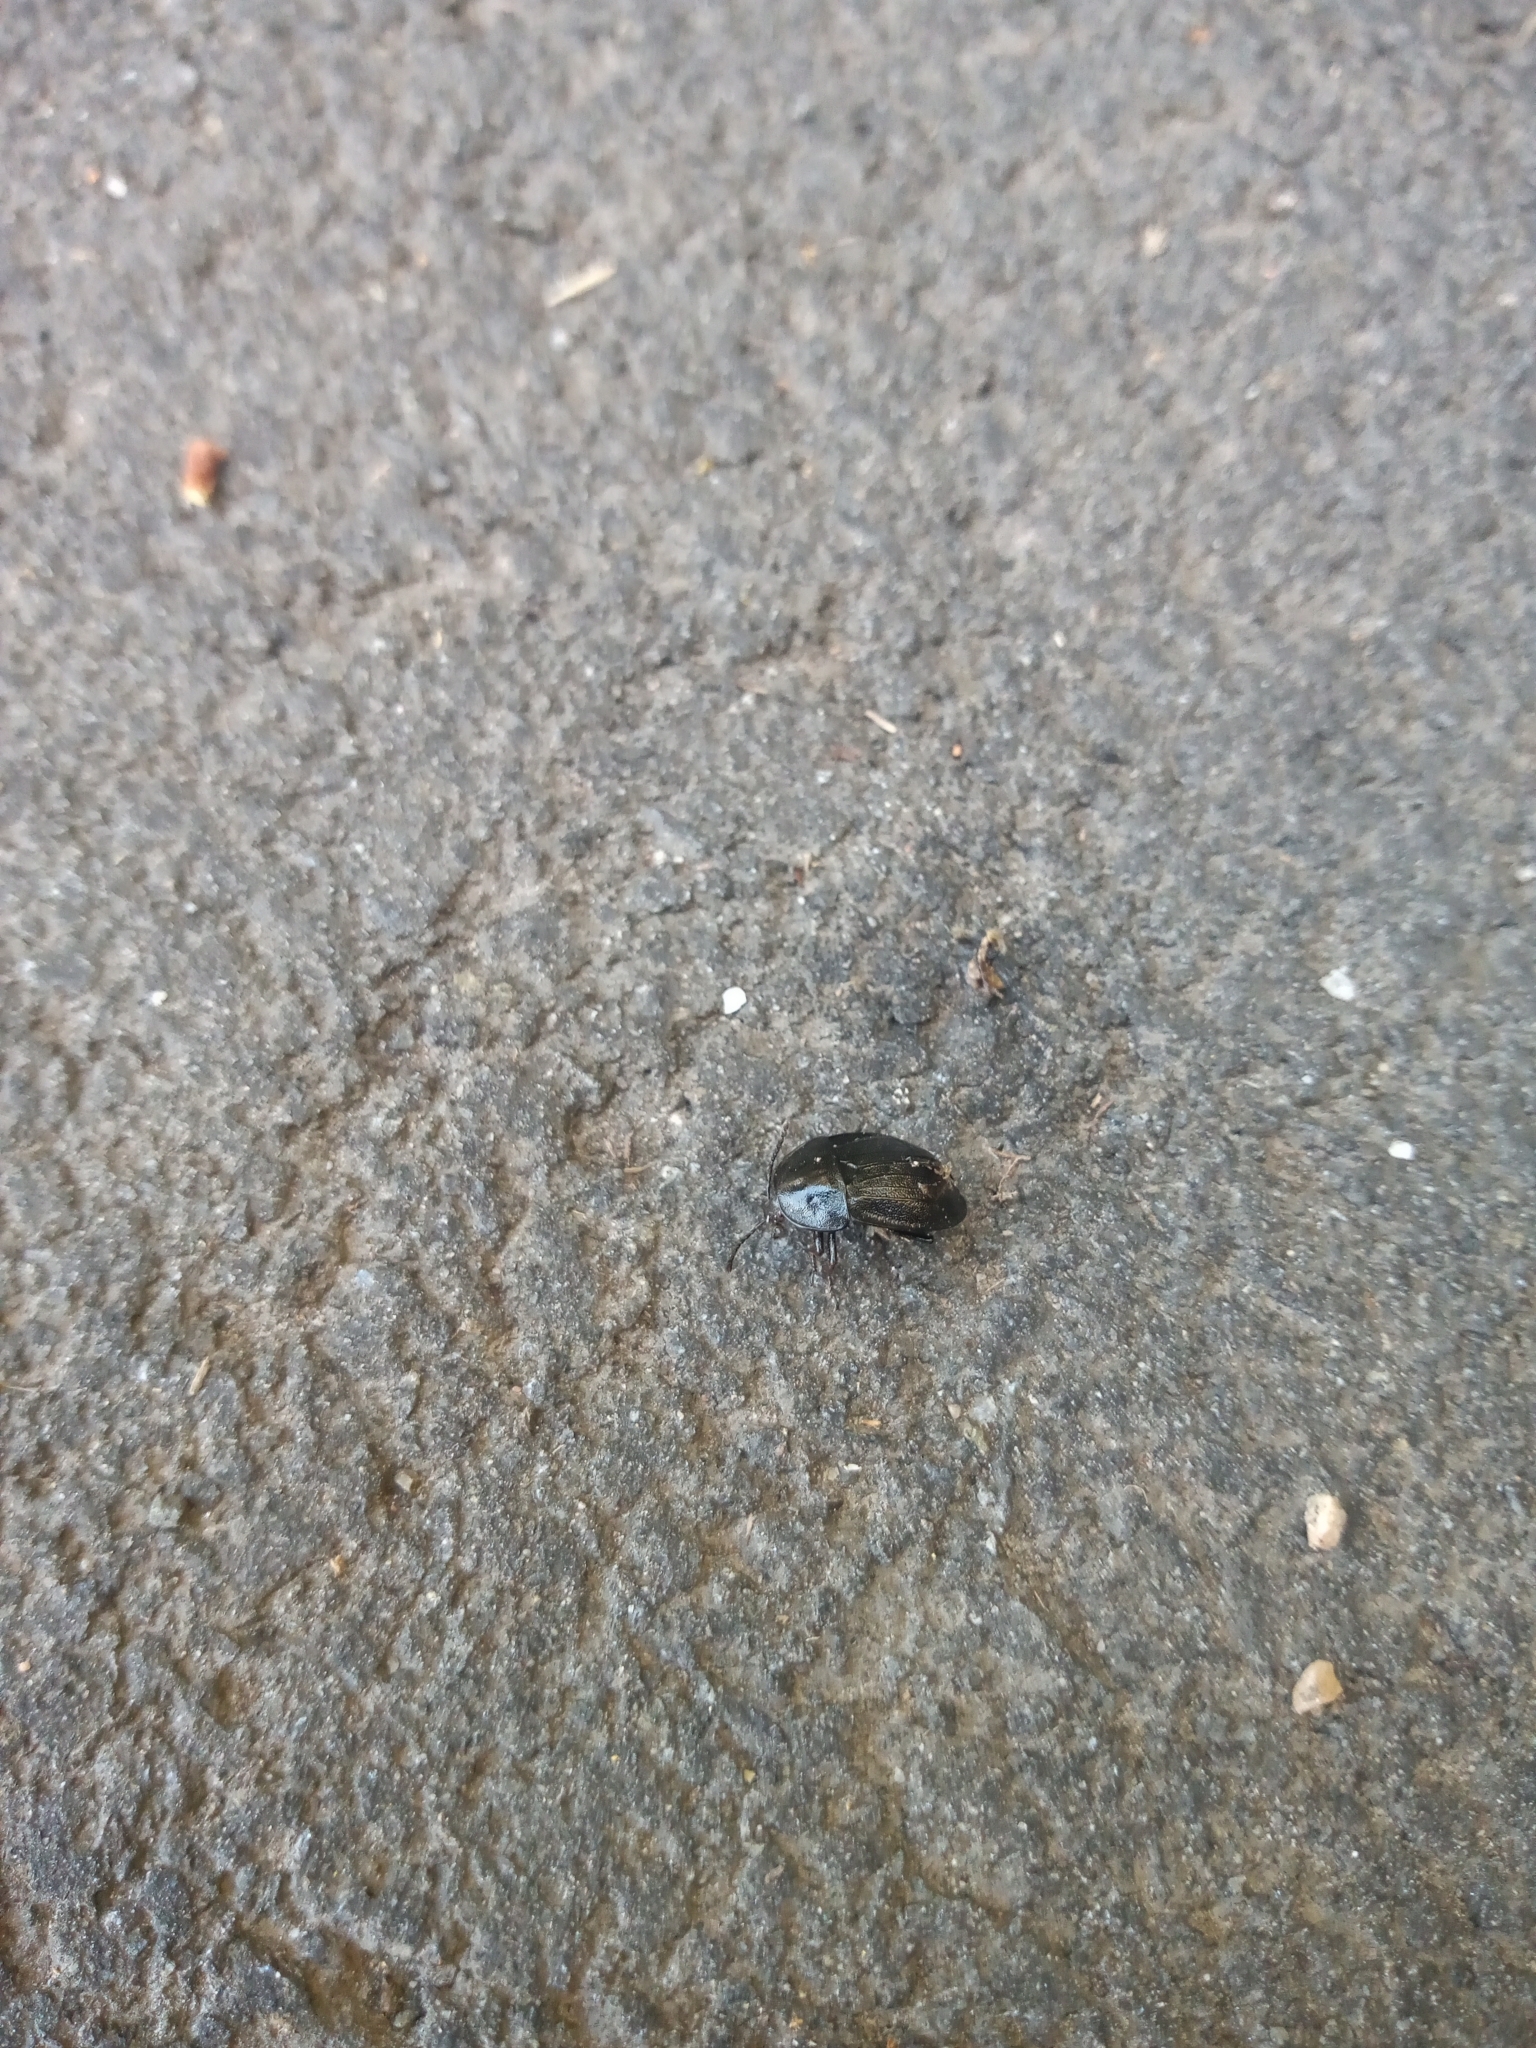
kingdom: Animalia
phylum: Arthropoda
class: Insecta
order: Coleoptera
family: Staphylinidae
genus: Silpha
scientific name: Silpha atrata
